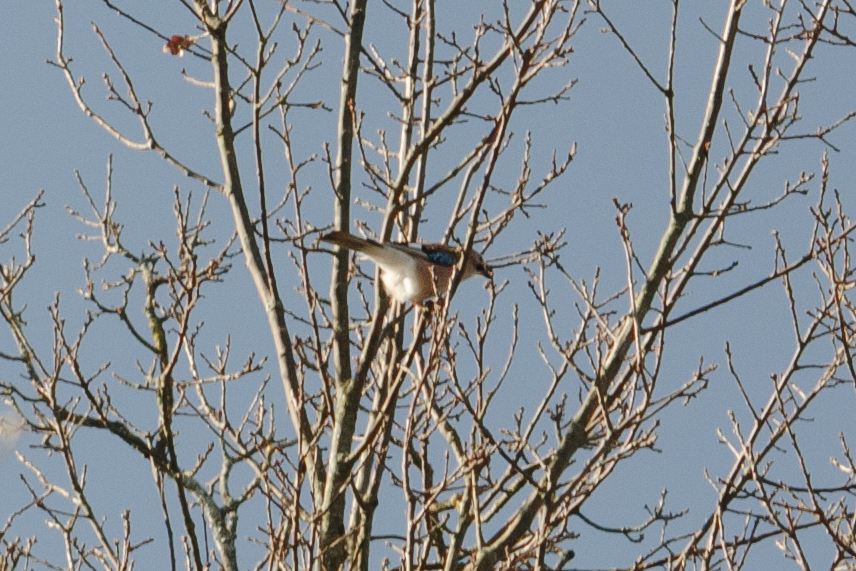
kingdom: Animalia
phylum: Chordata
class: Aves
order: Passeriformes
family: Corvidae
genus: Garrulus
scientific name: Garrulus glandarius
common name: Eurasian jay
